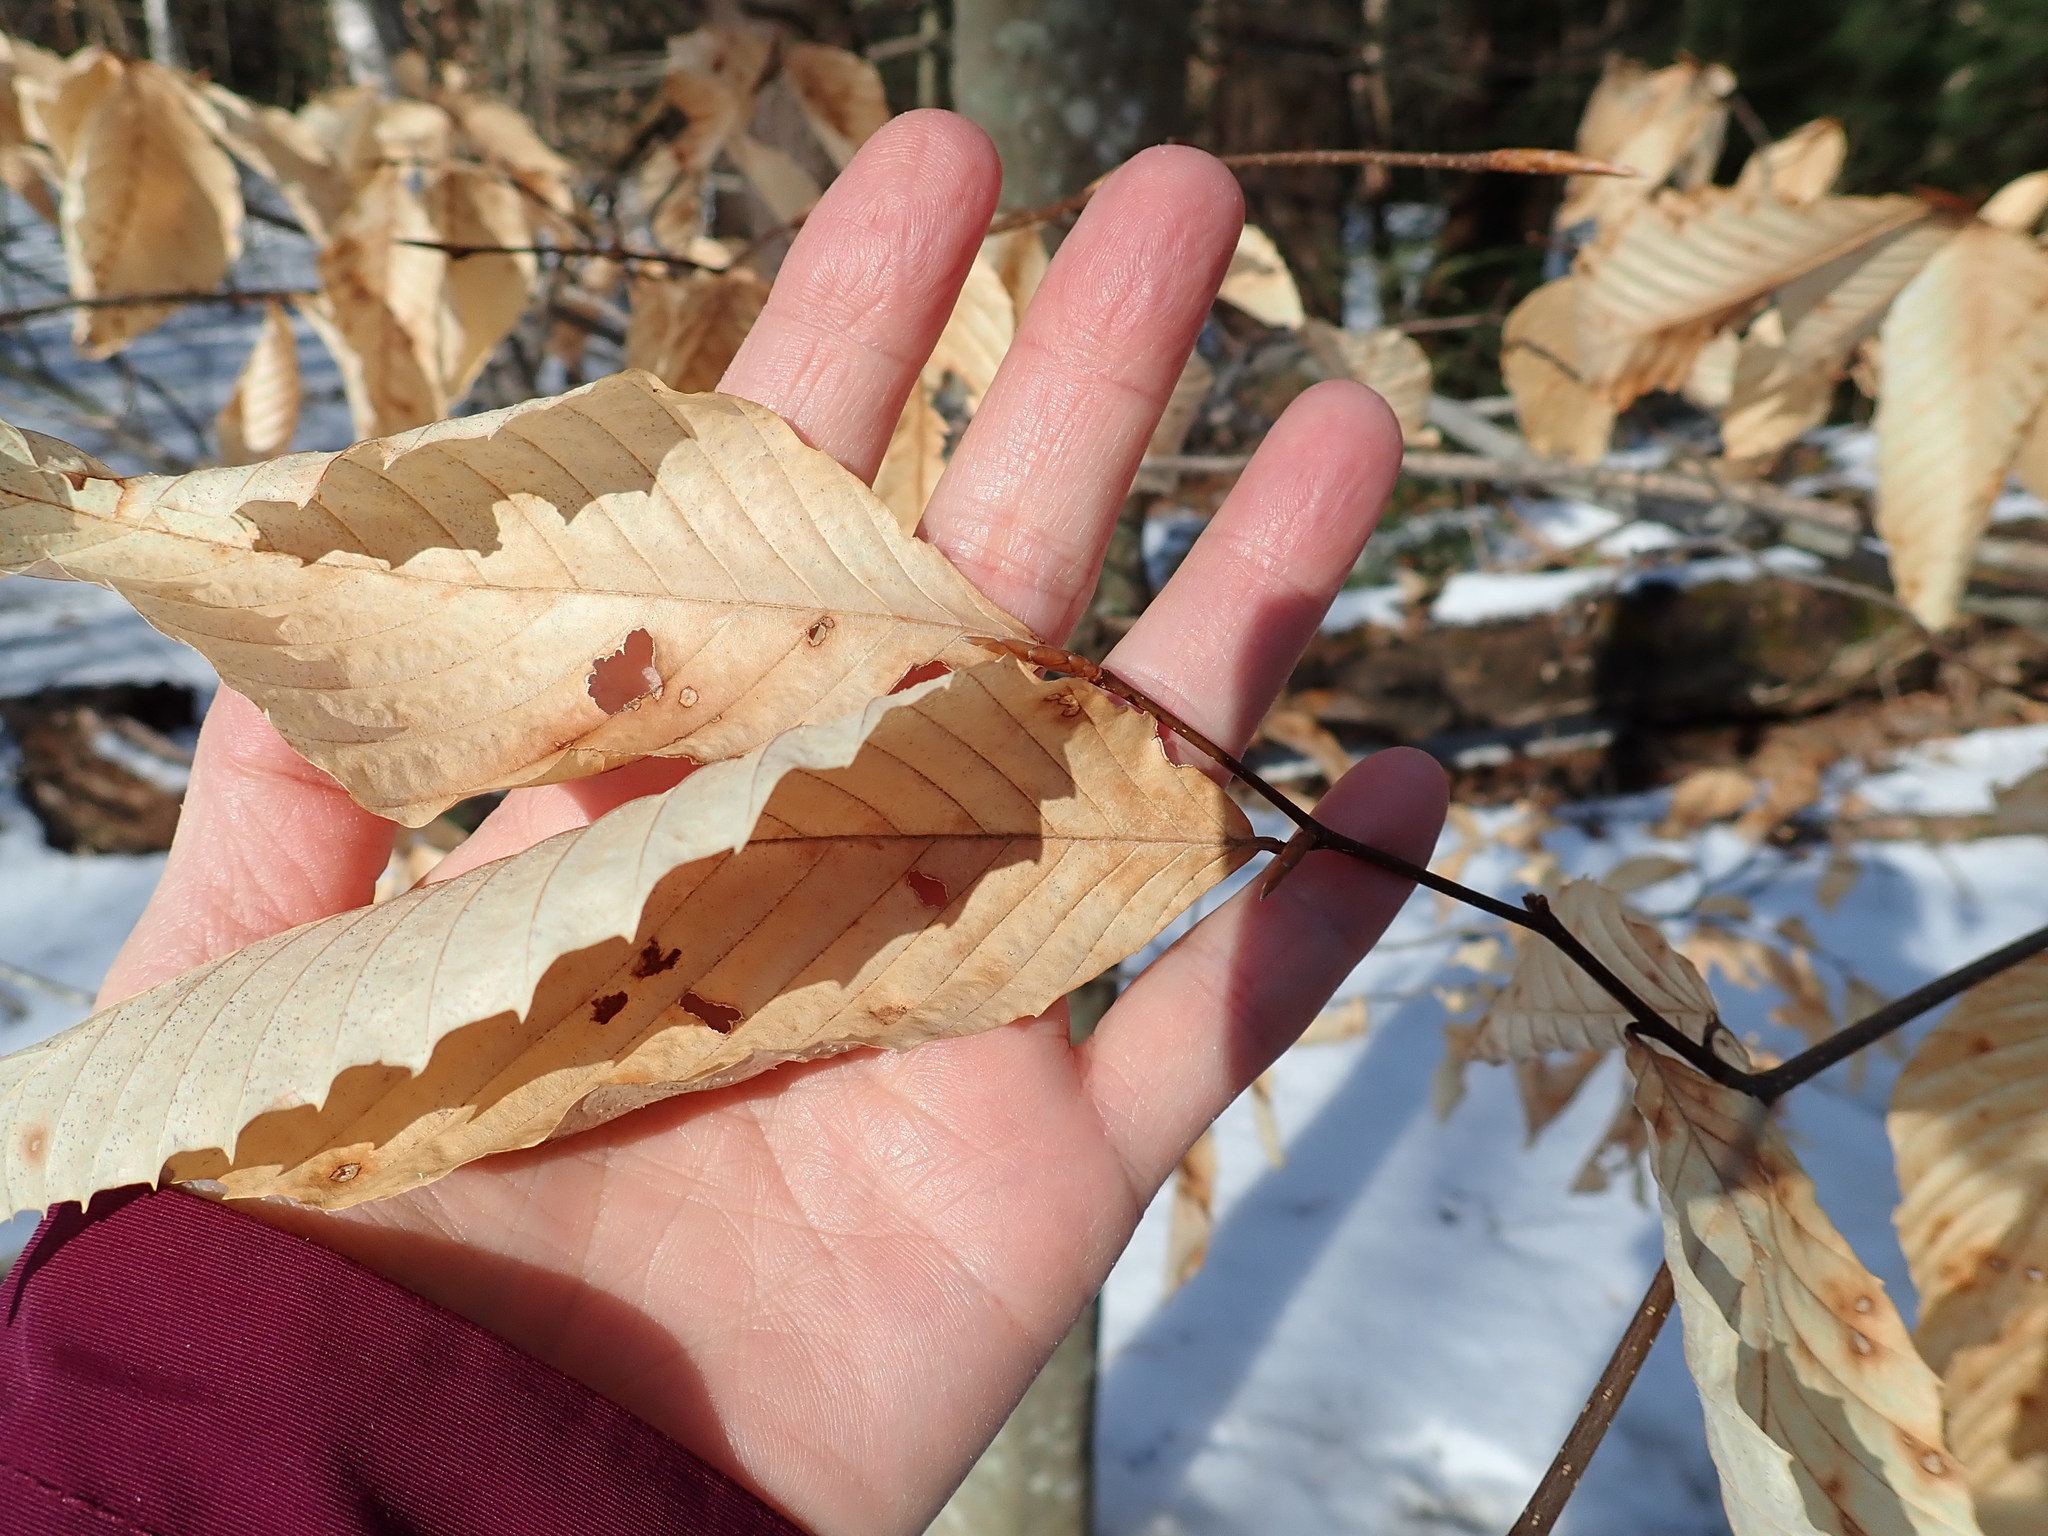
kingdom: Plantae
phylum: Tracheophyta
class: Magnoliopsida
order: Fagales
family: Fagaceae
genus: Fagus
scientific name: Fagus grandifolia
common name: American beech
